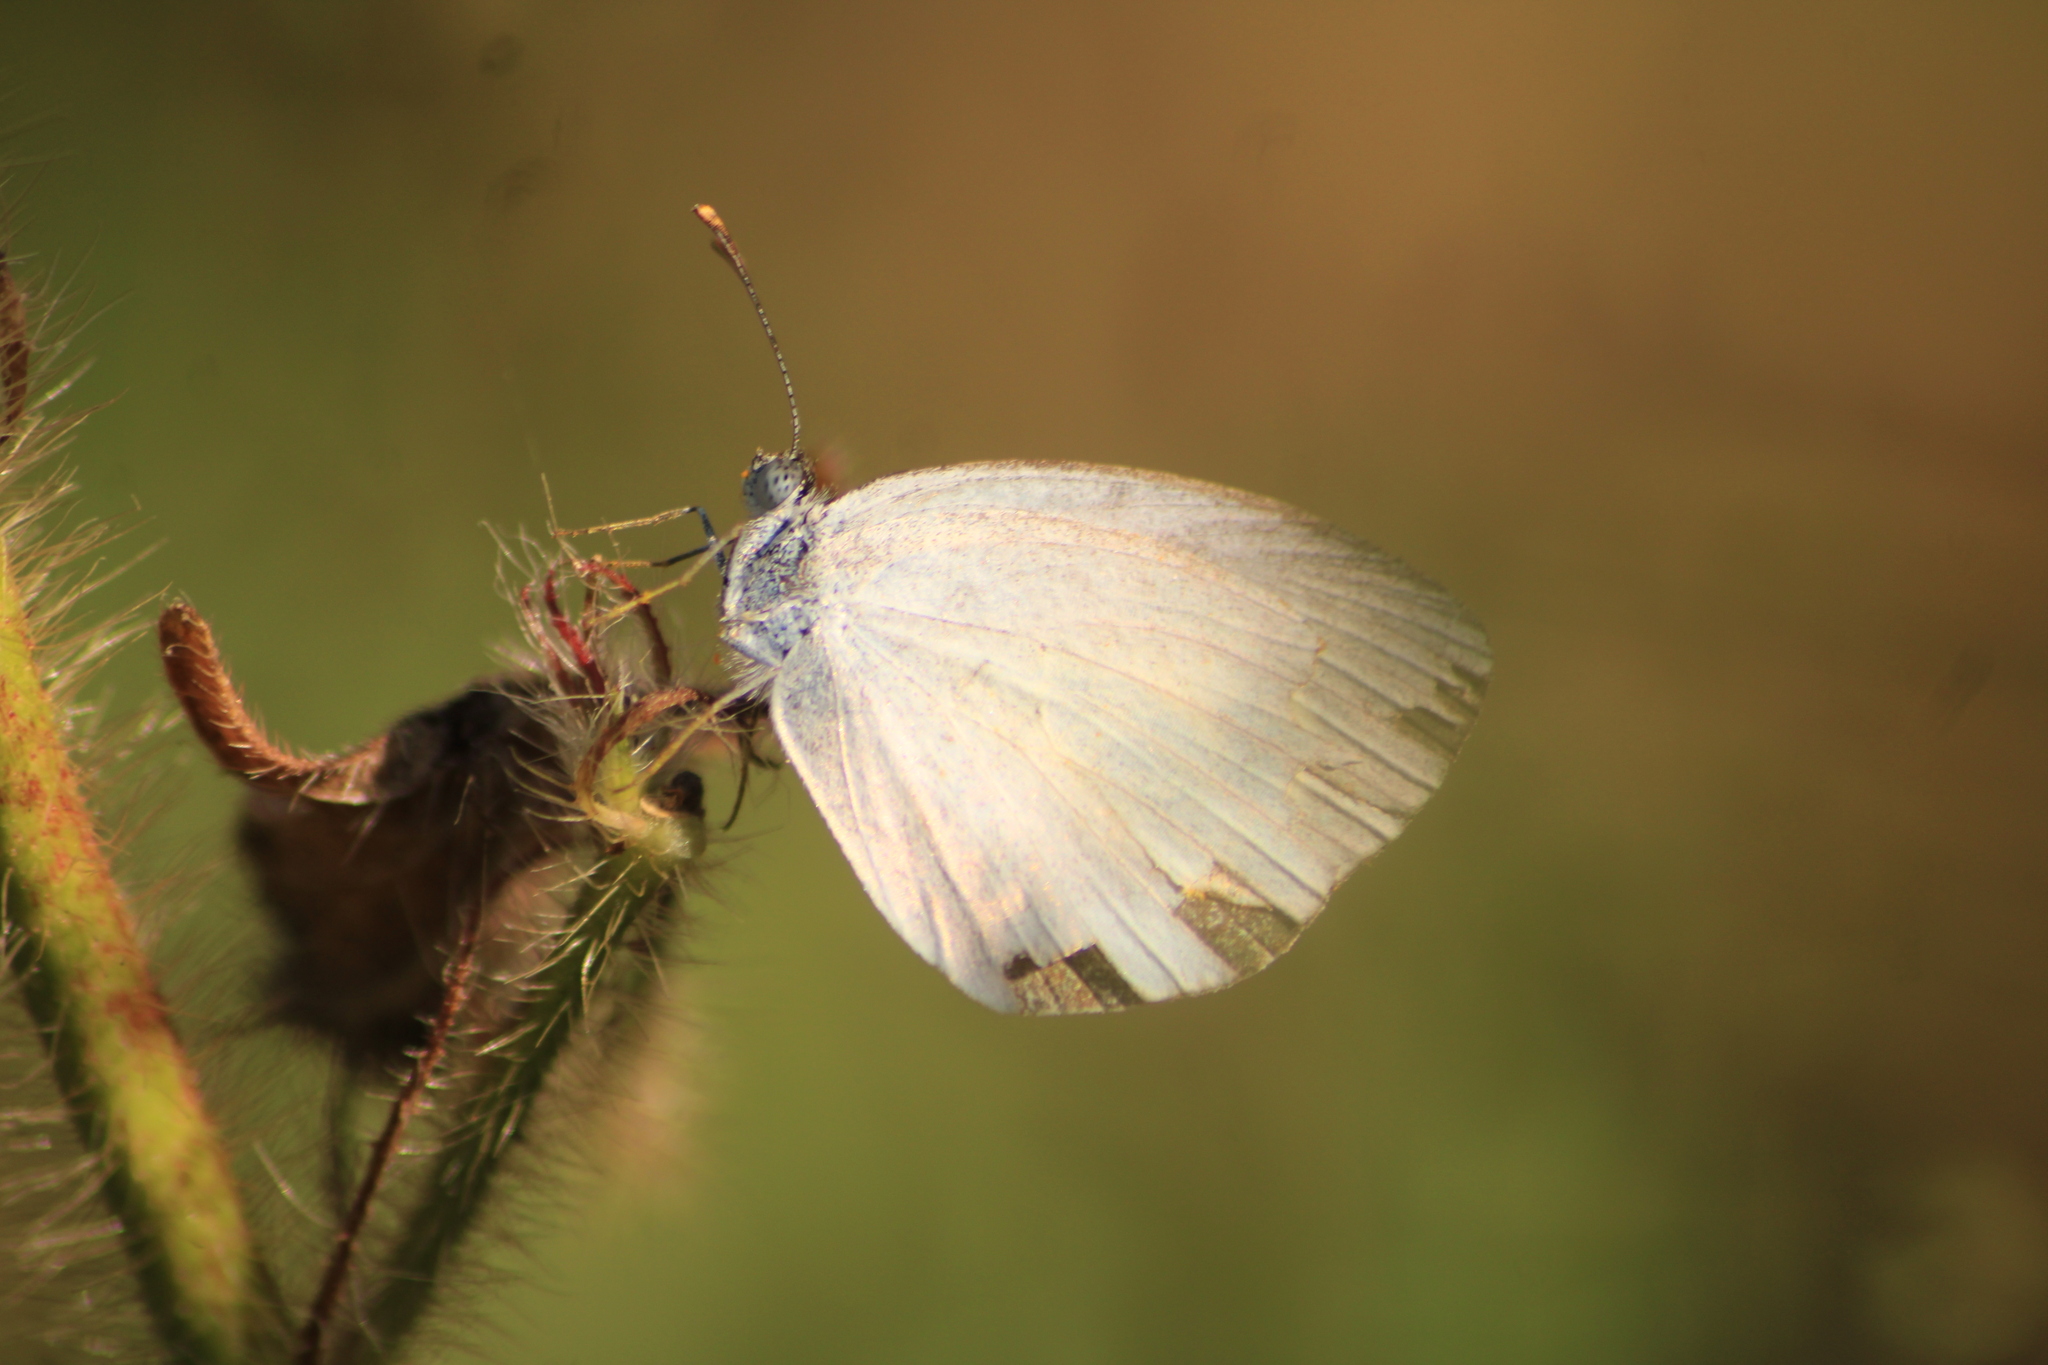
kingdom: Animalia
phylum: Arthropoda
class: Insecta
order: Lepidoptera
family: Pieridae
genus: Eurema
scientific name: Eurema daira
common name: Barred sulphur
